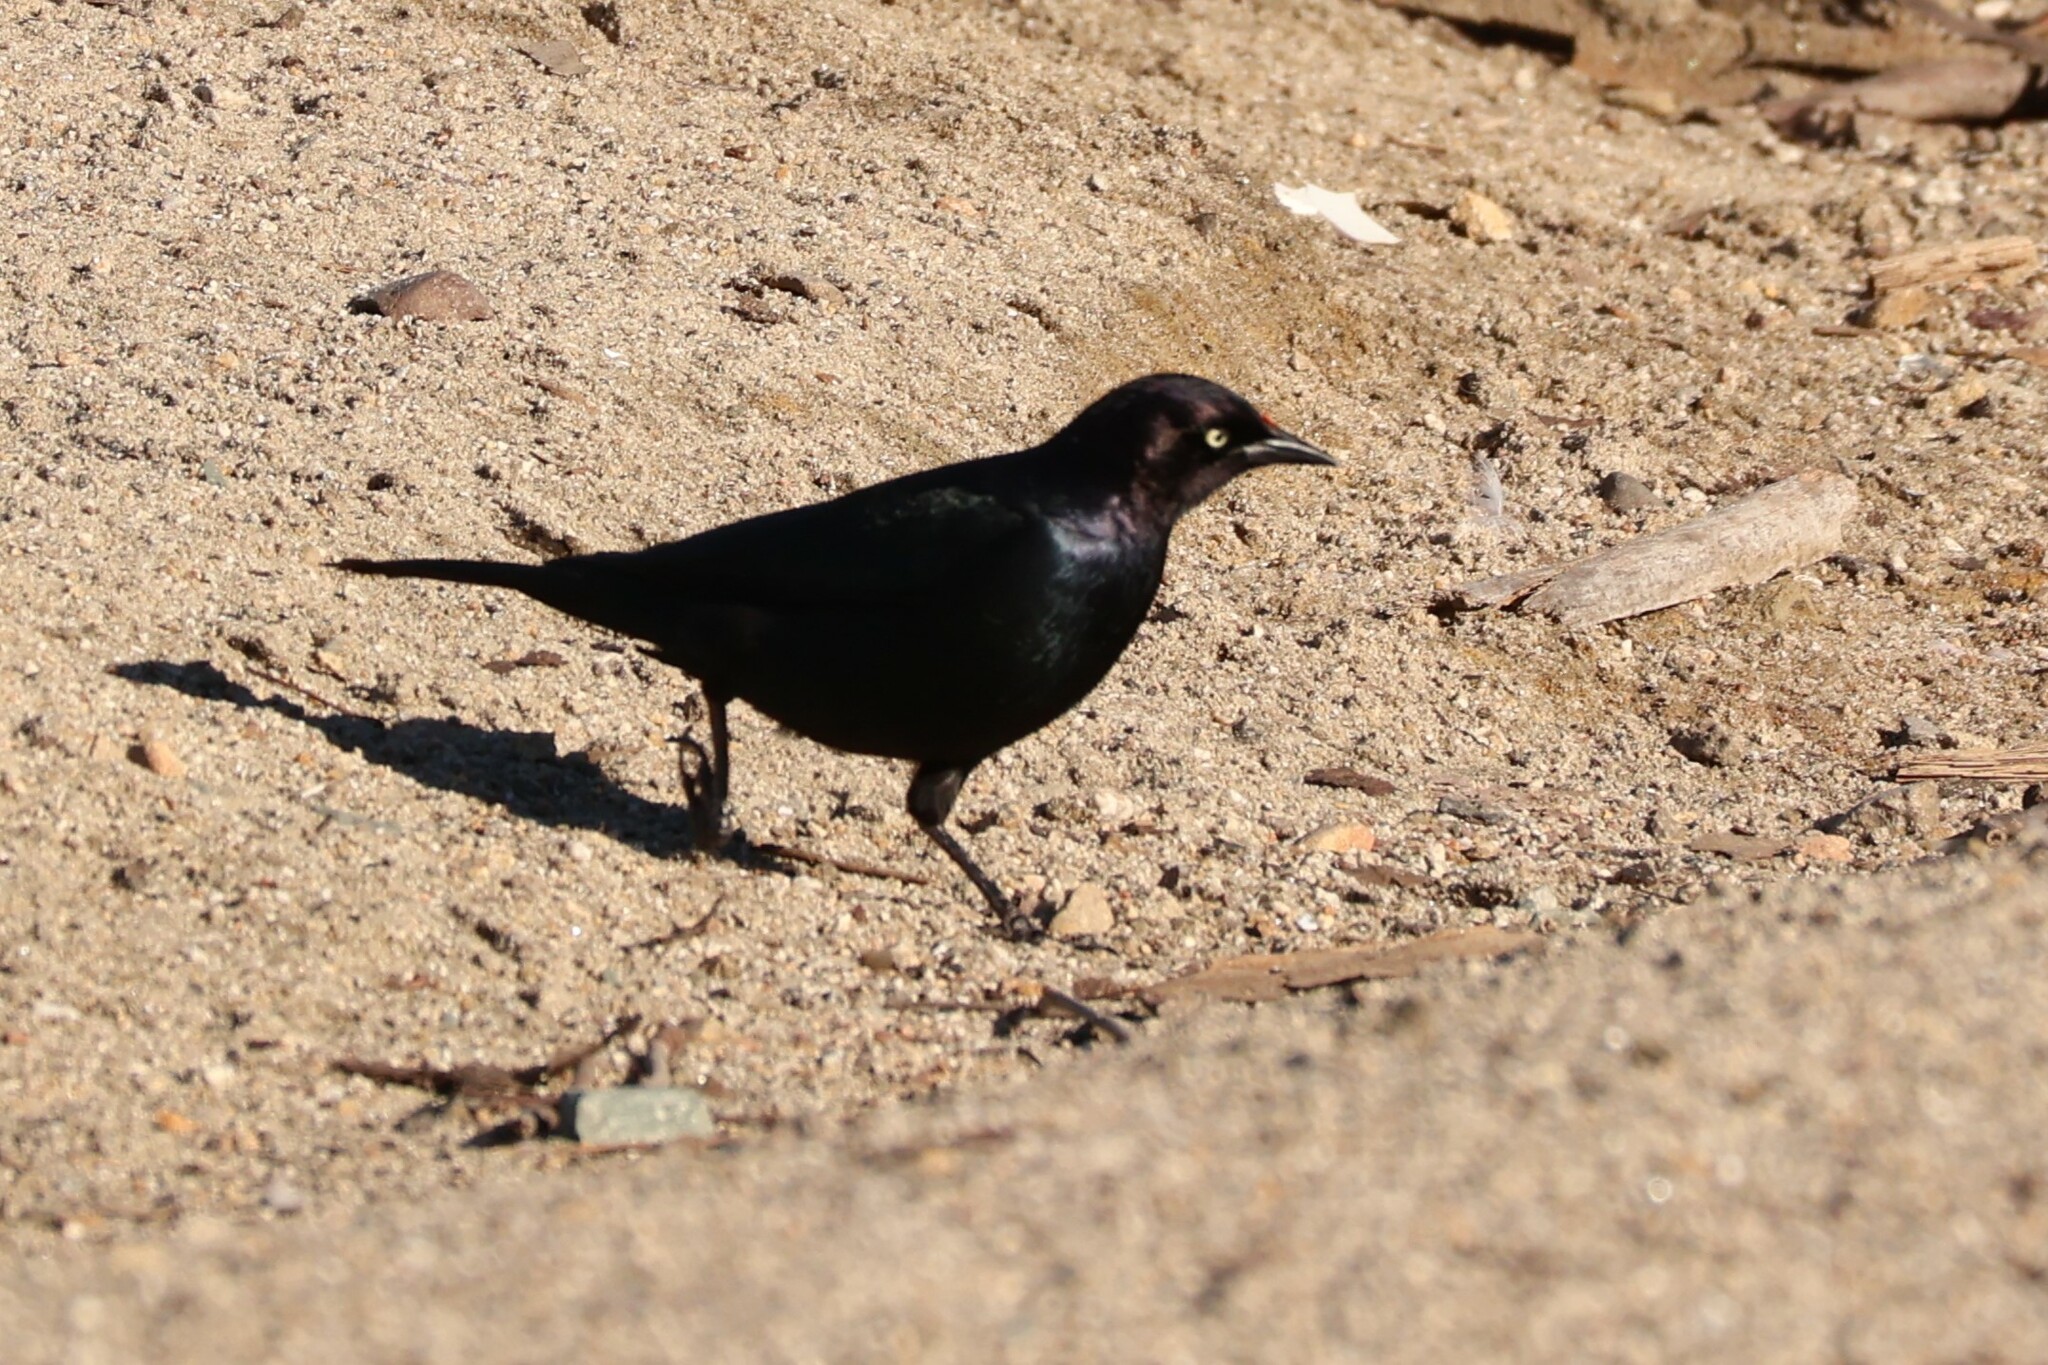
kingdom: Animalia
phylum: Chordata
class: Aves
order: Passeriformes
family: Icteridae
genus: Euphagus
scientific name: Euphagus cyanocephalus
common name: Brewer's blackbird
